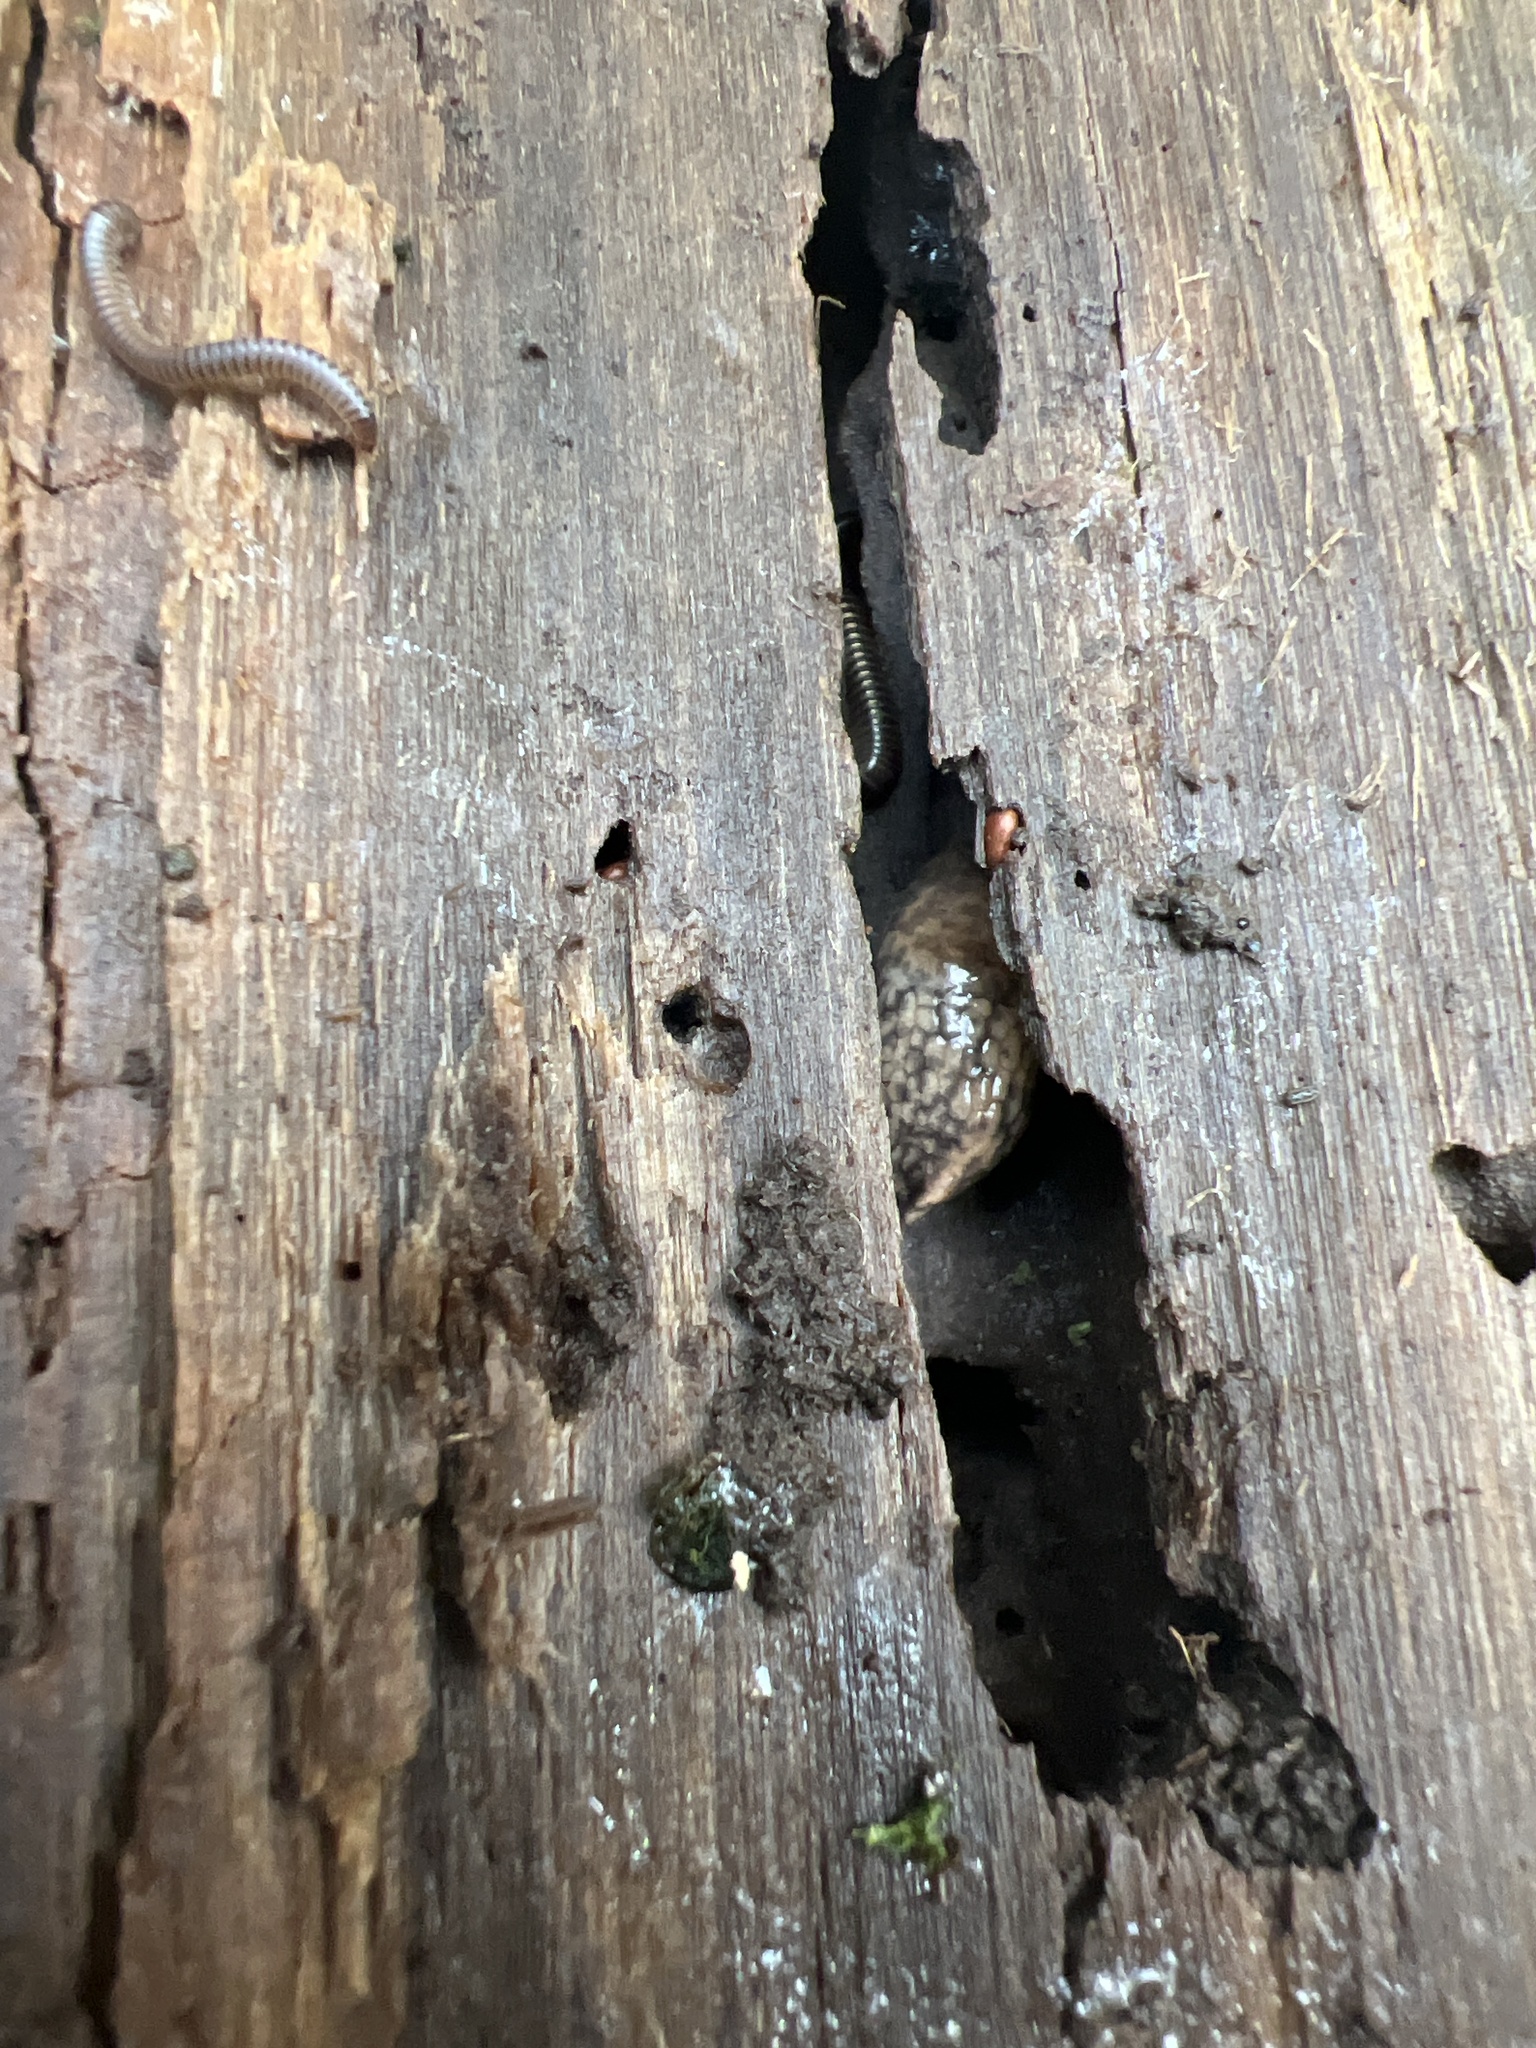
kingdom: Animalia
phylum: Mollusca
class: Gastropoda
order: Stylommatophora
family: Agriolimacidae
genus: Deroceras
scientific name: Deroceras reticulatum
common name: Gray field slug
